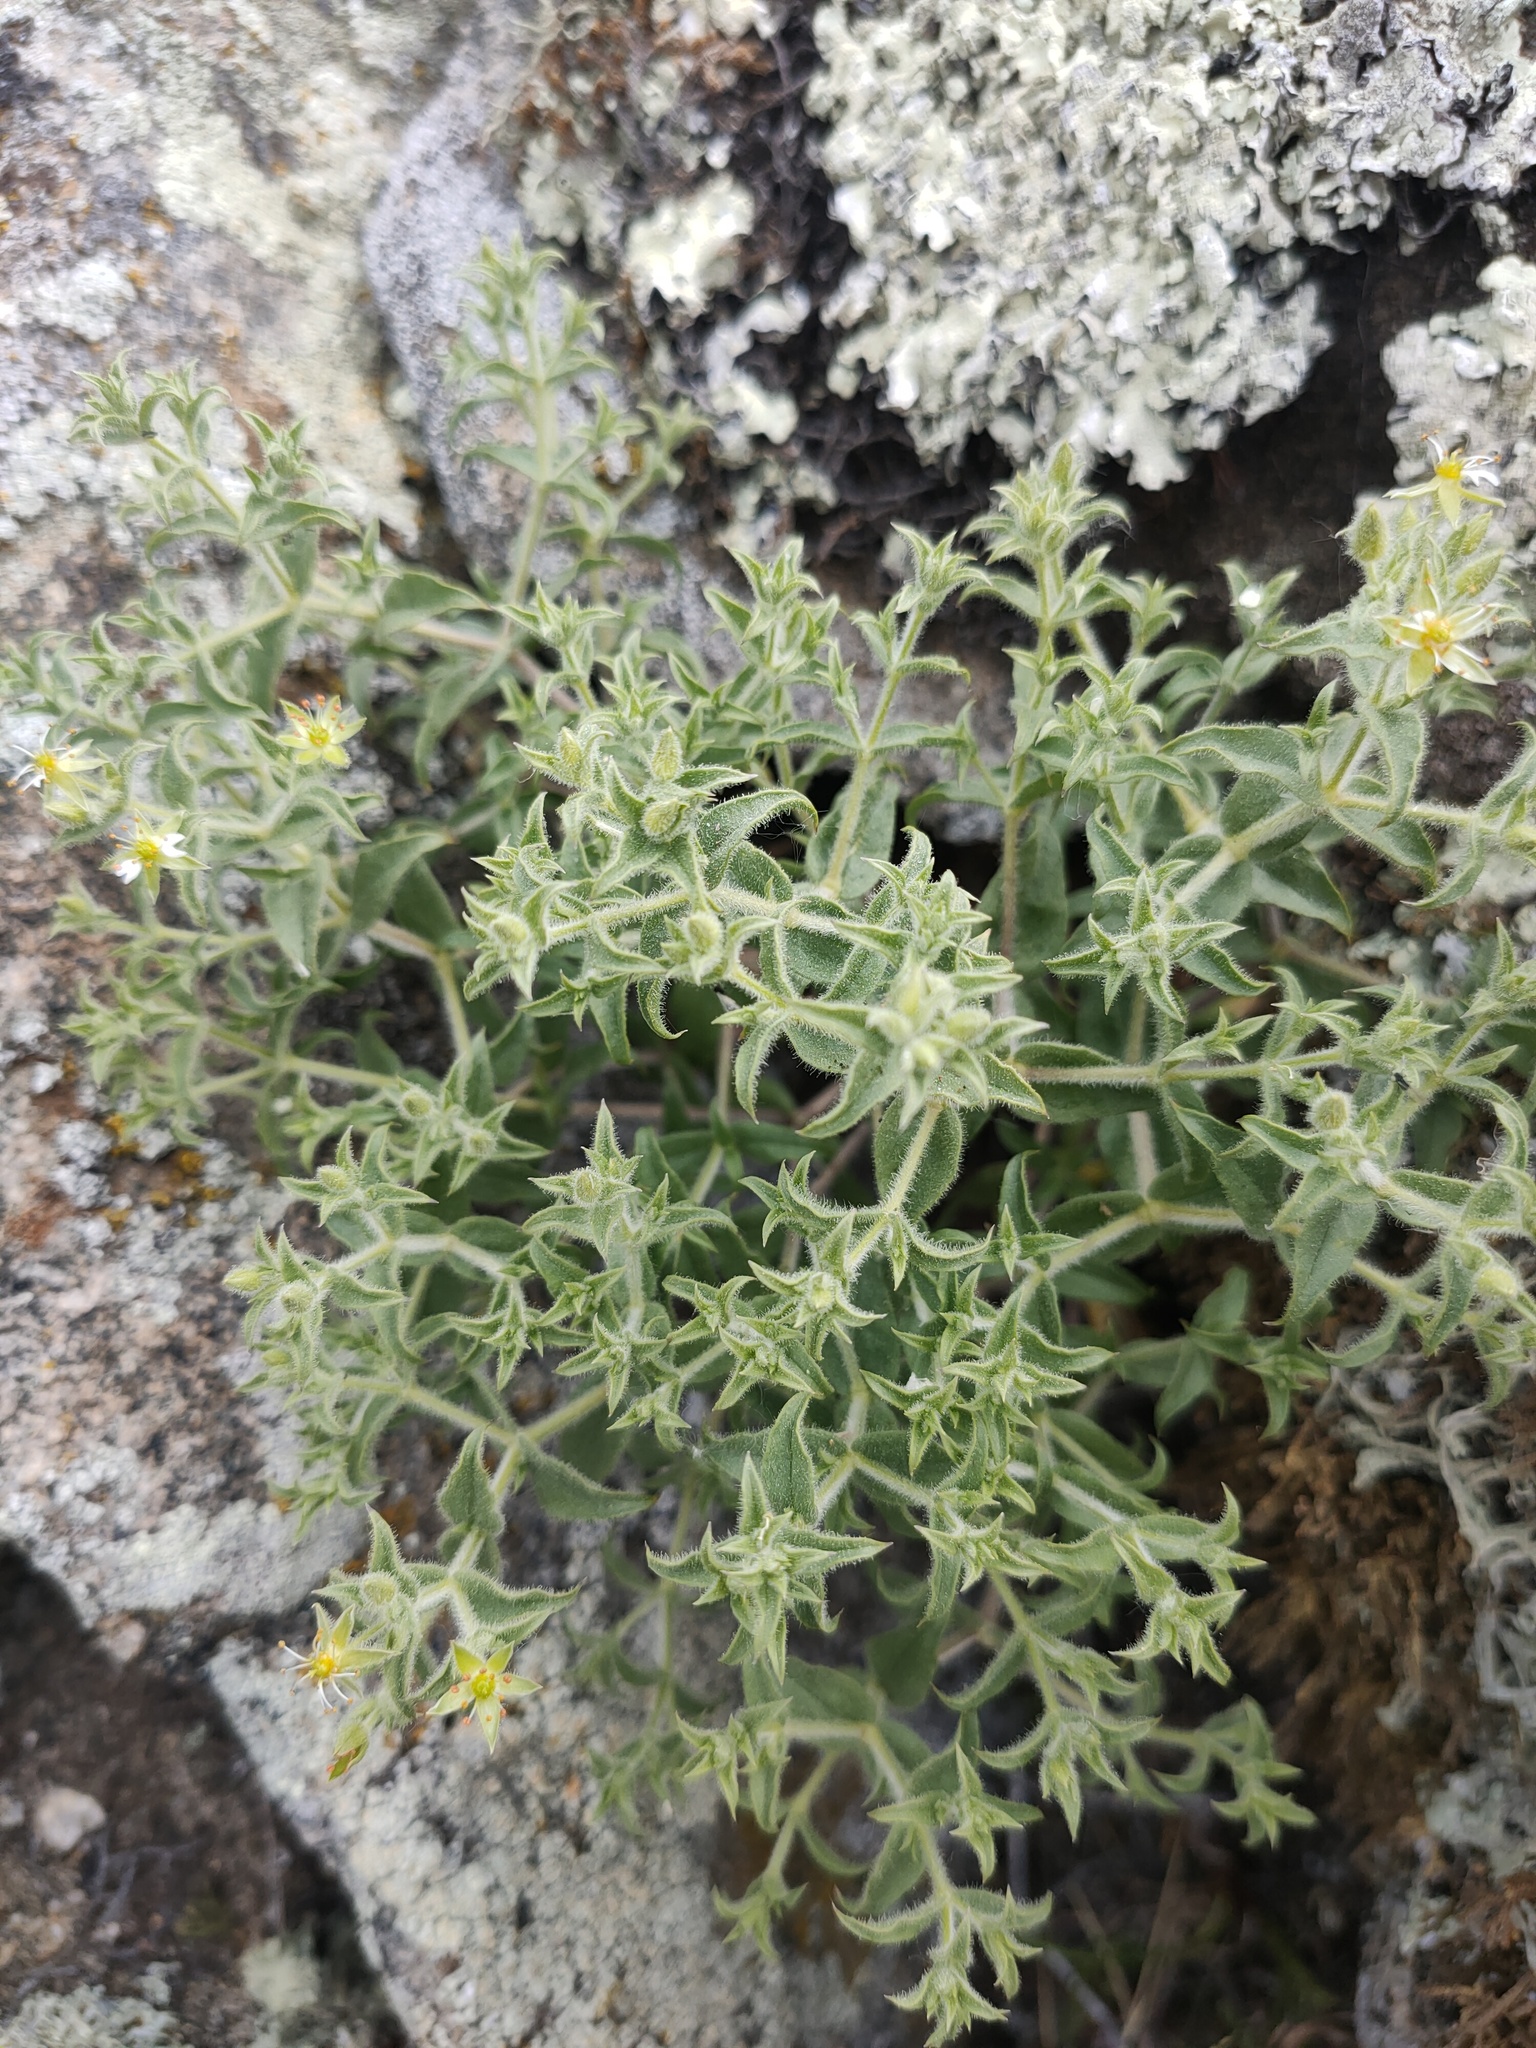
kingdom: Plantae
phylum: Tracheophyta
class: Magnoliopsida
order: Caryophyllales
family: Caryophyllaceae
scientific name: Caryophyllaceae
